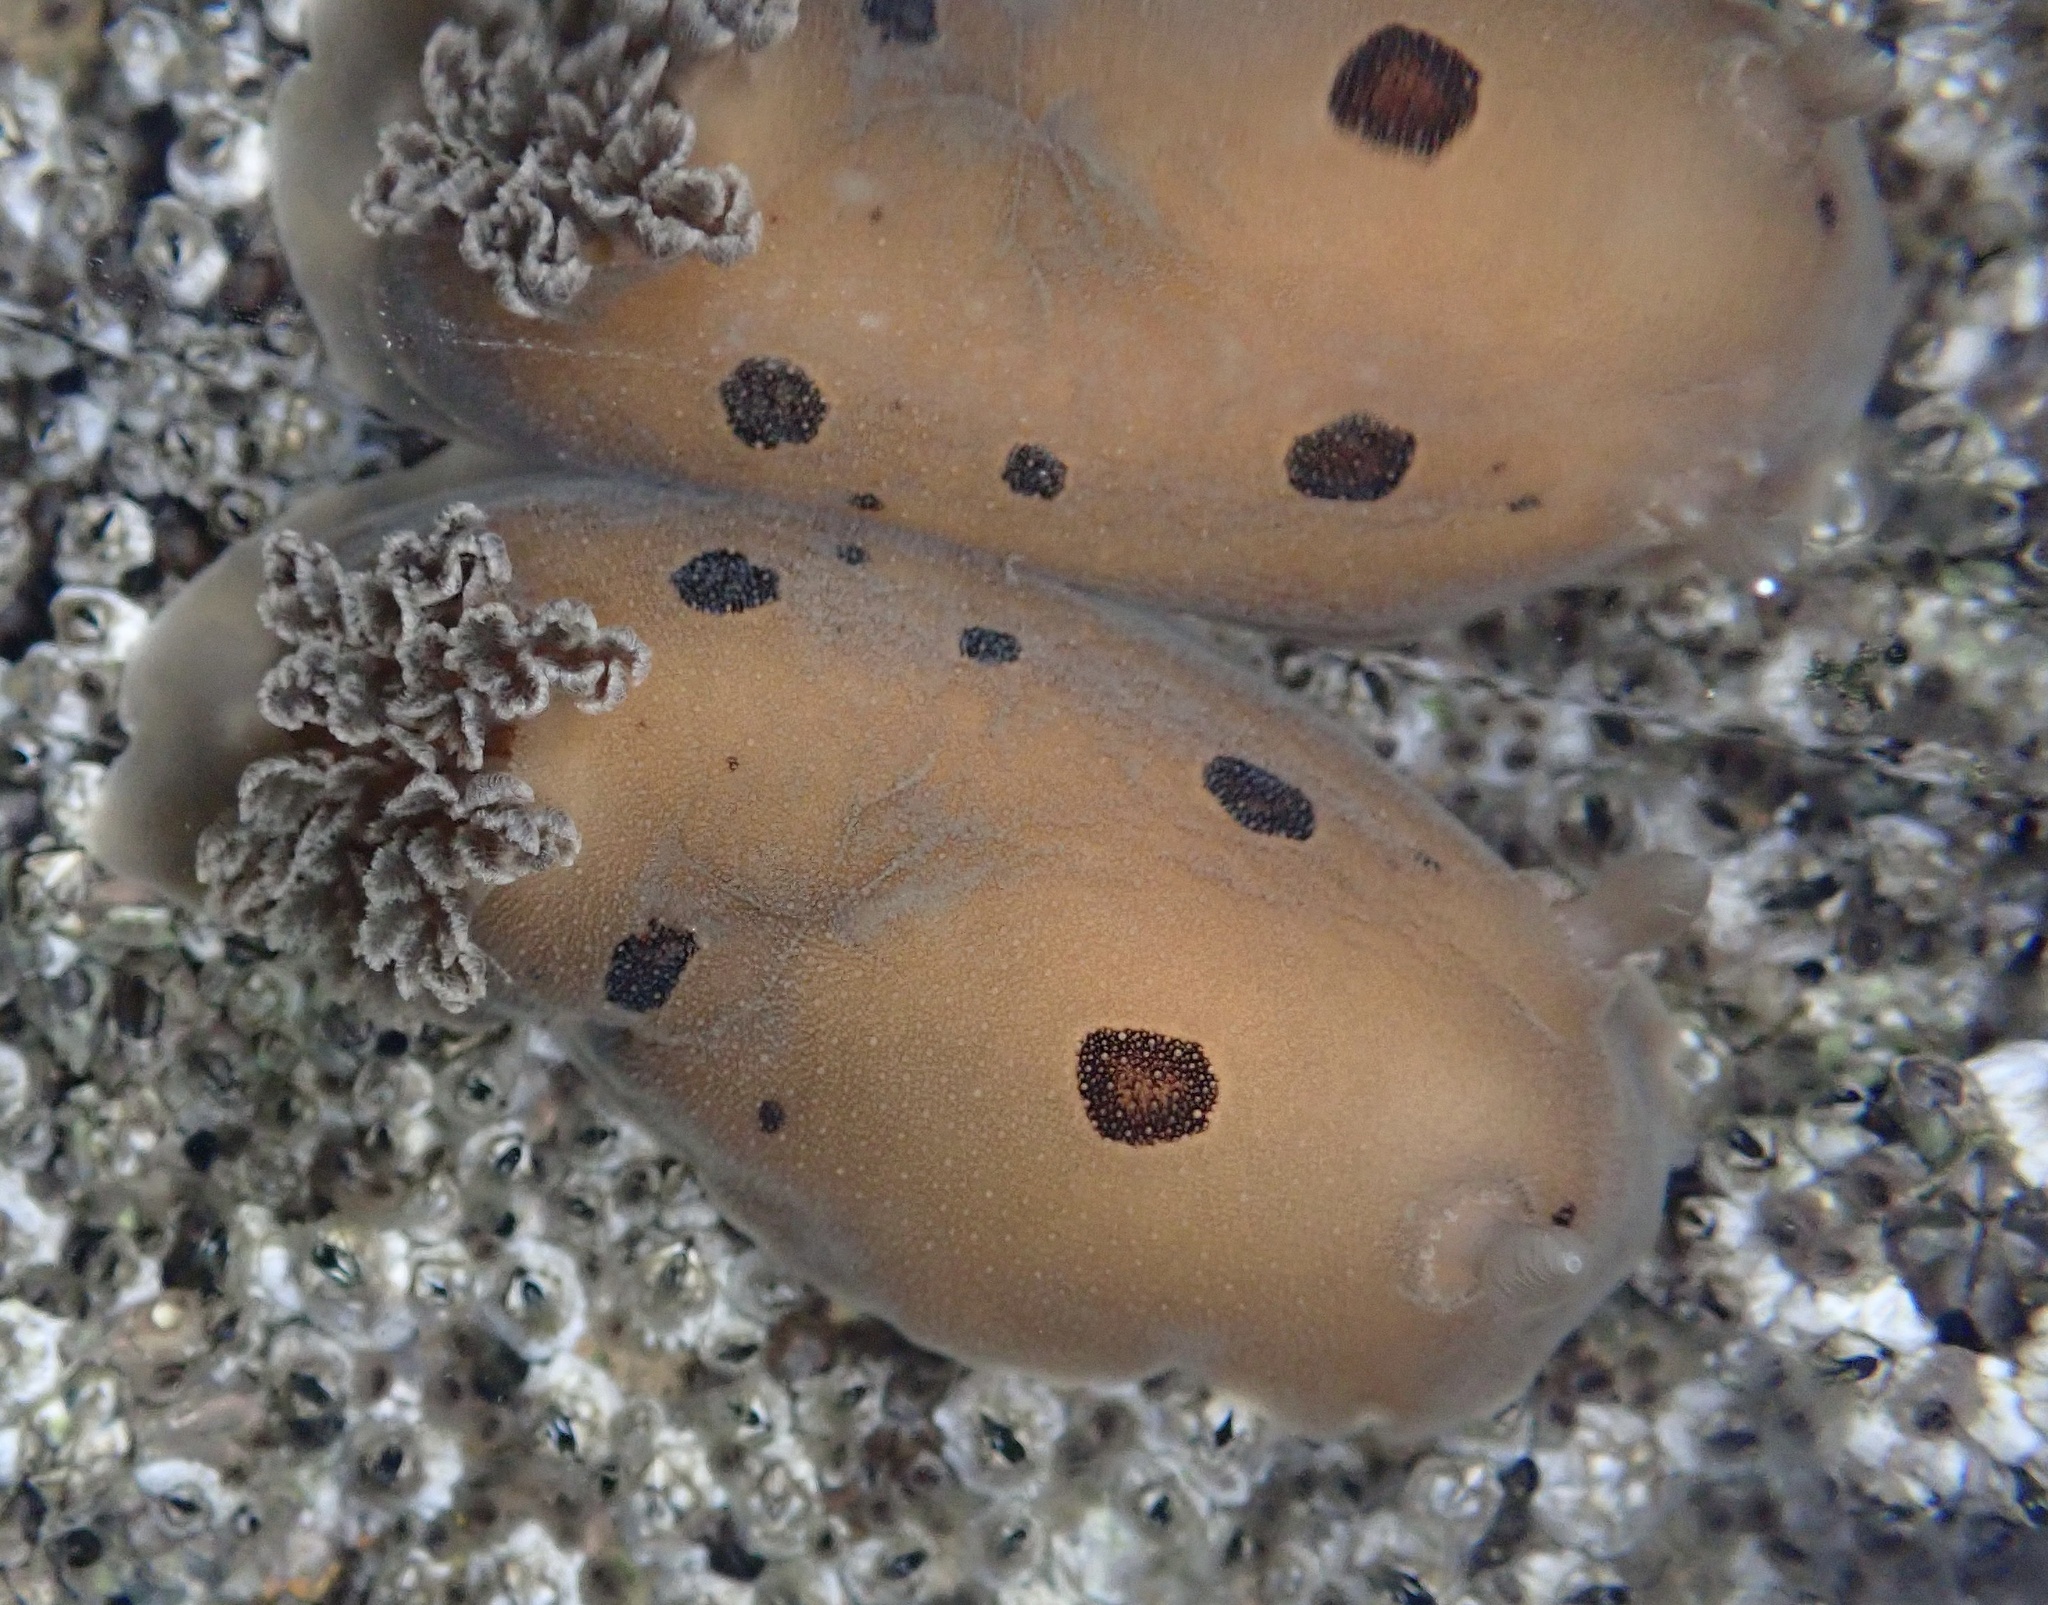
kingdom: Animalia
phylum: Mollusca
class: Gastropoda
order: Nudibranchia
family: Discodorididae
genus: Diaulula
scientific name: Diaulula sandiegensis
